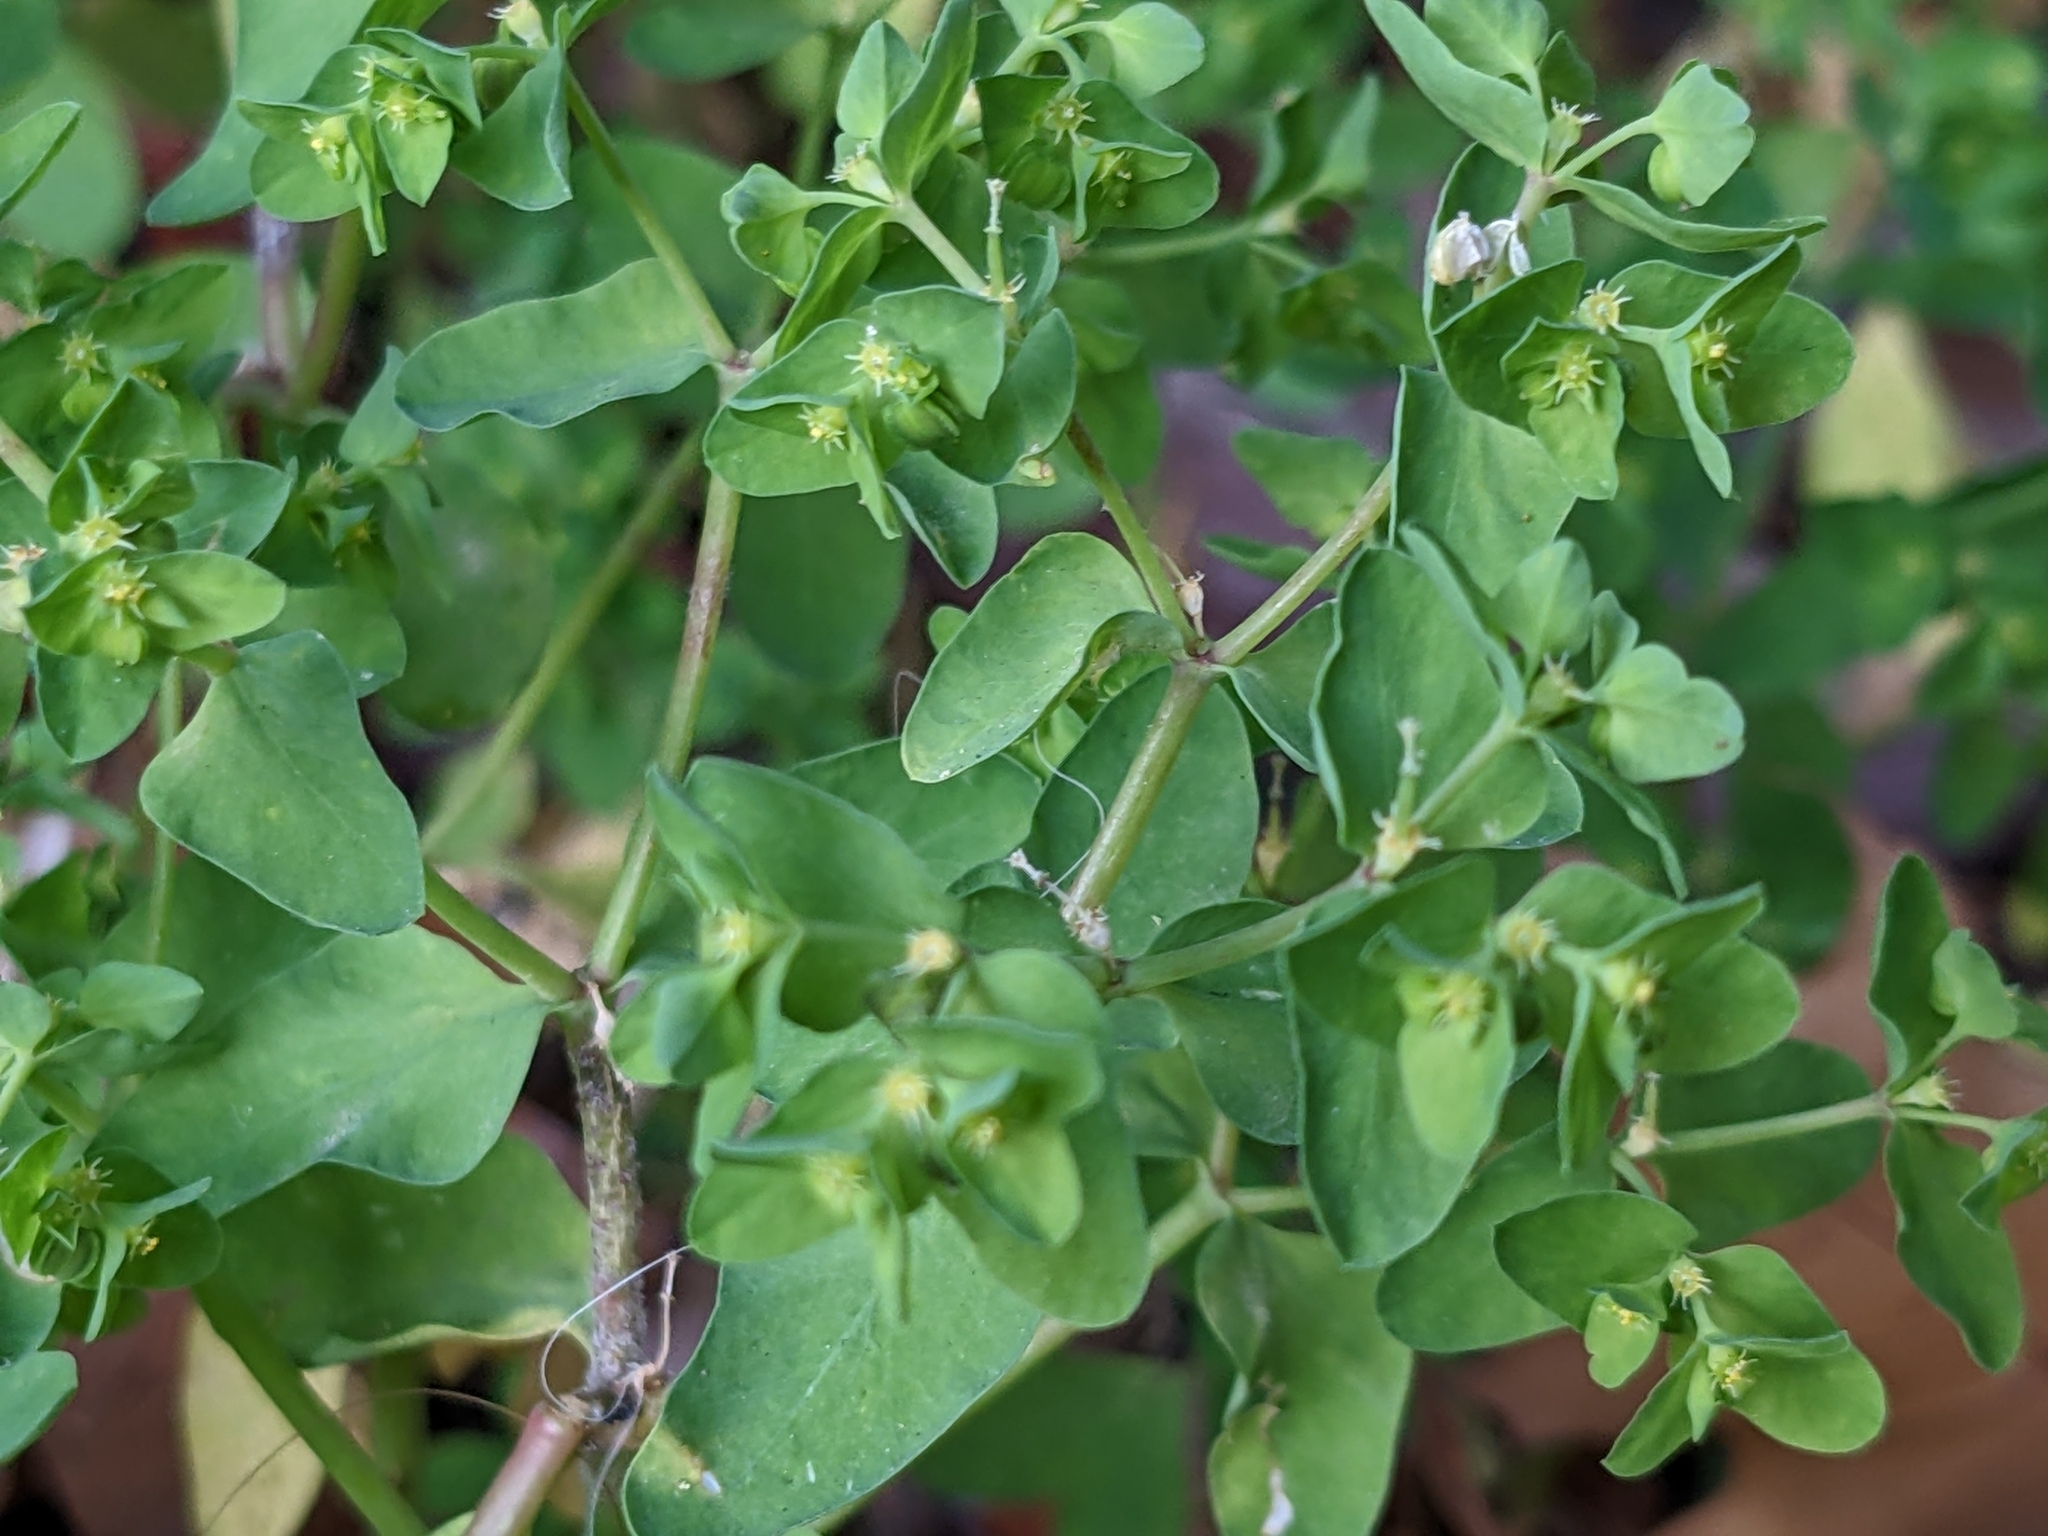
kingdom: Plantae
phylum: Tracheophyta
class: Magnoliopsida
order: Malpighiales
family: Euphorbiaceae
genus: Euphorbia
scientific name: Euphorbia peplus
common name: Petty spurge
